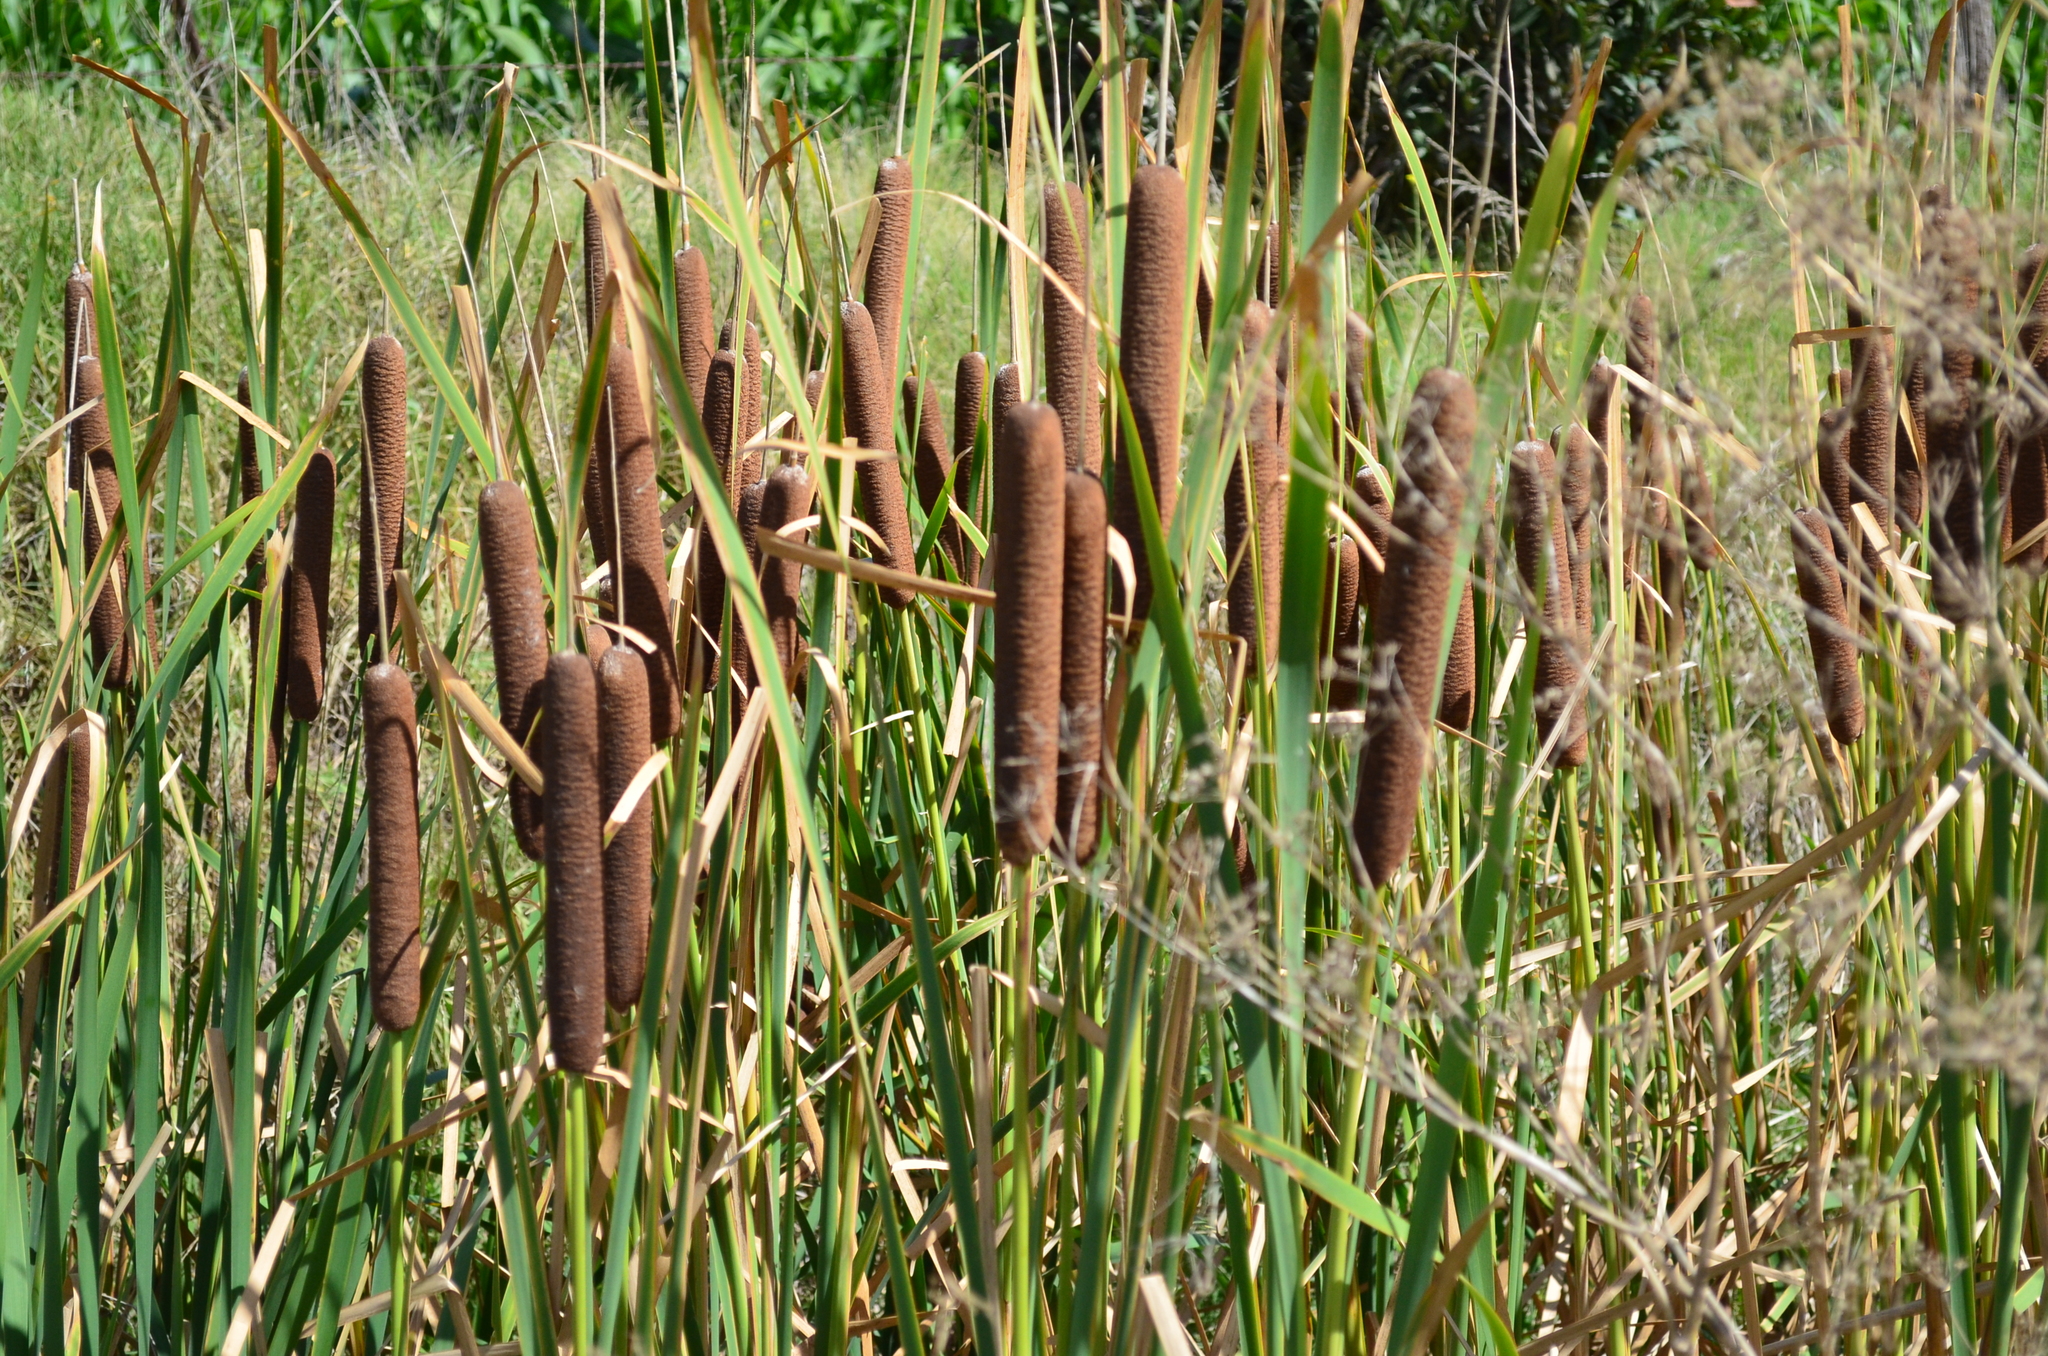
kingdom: Plantae
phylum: Tracheophyta
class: Liliopsida
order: Poales
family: Typhaceae
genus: Typha
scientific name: Typha domingensis
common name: Southern cattail
